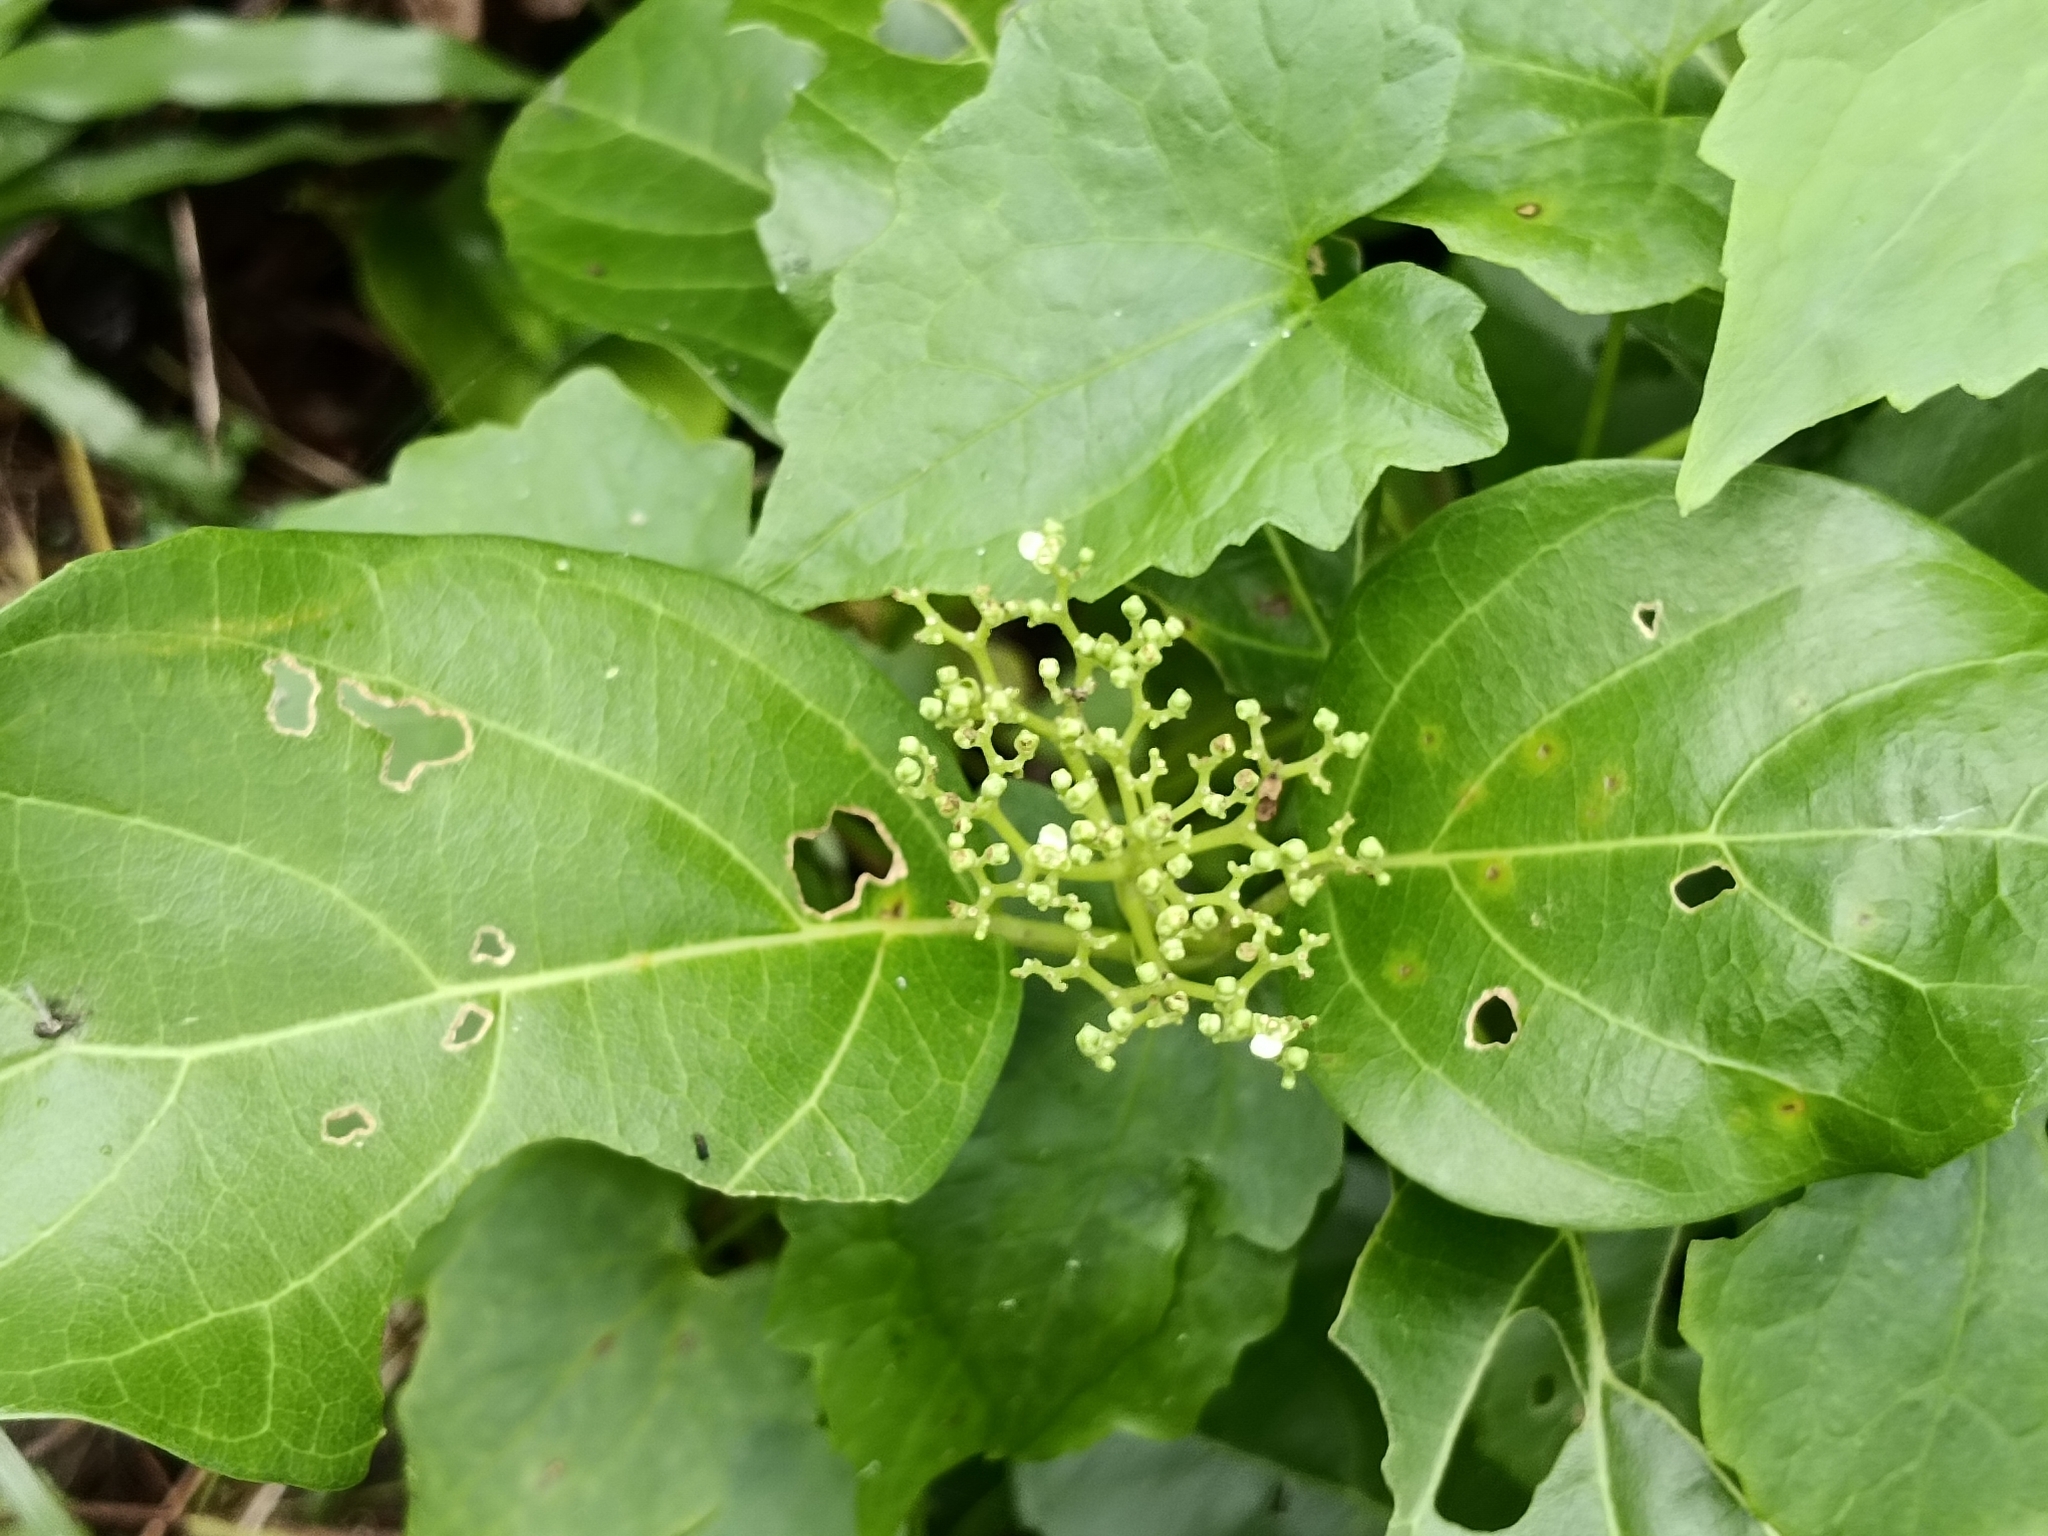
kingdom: Plantae
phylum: Tracheophyta
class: Magnoliopsida
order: Lamiales
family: Lamiaceae
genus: Premna
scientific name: Premna serratifolia
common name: Bastard guelder
